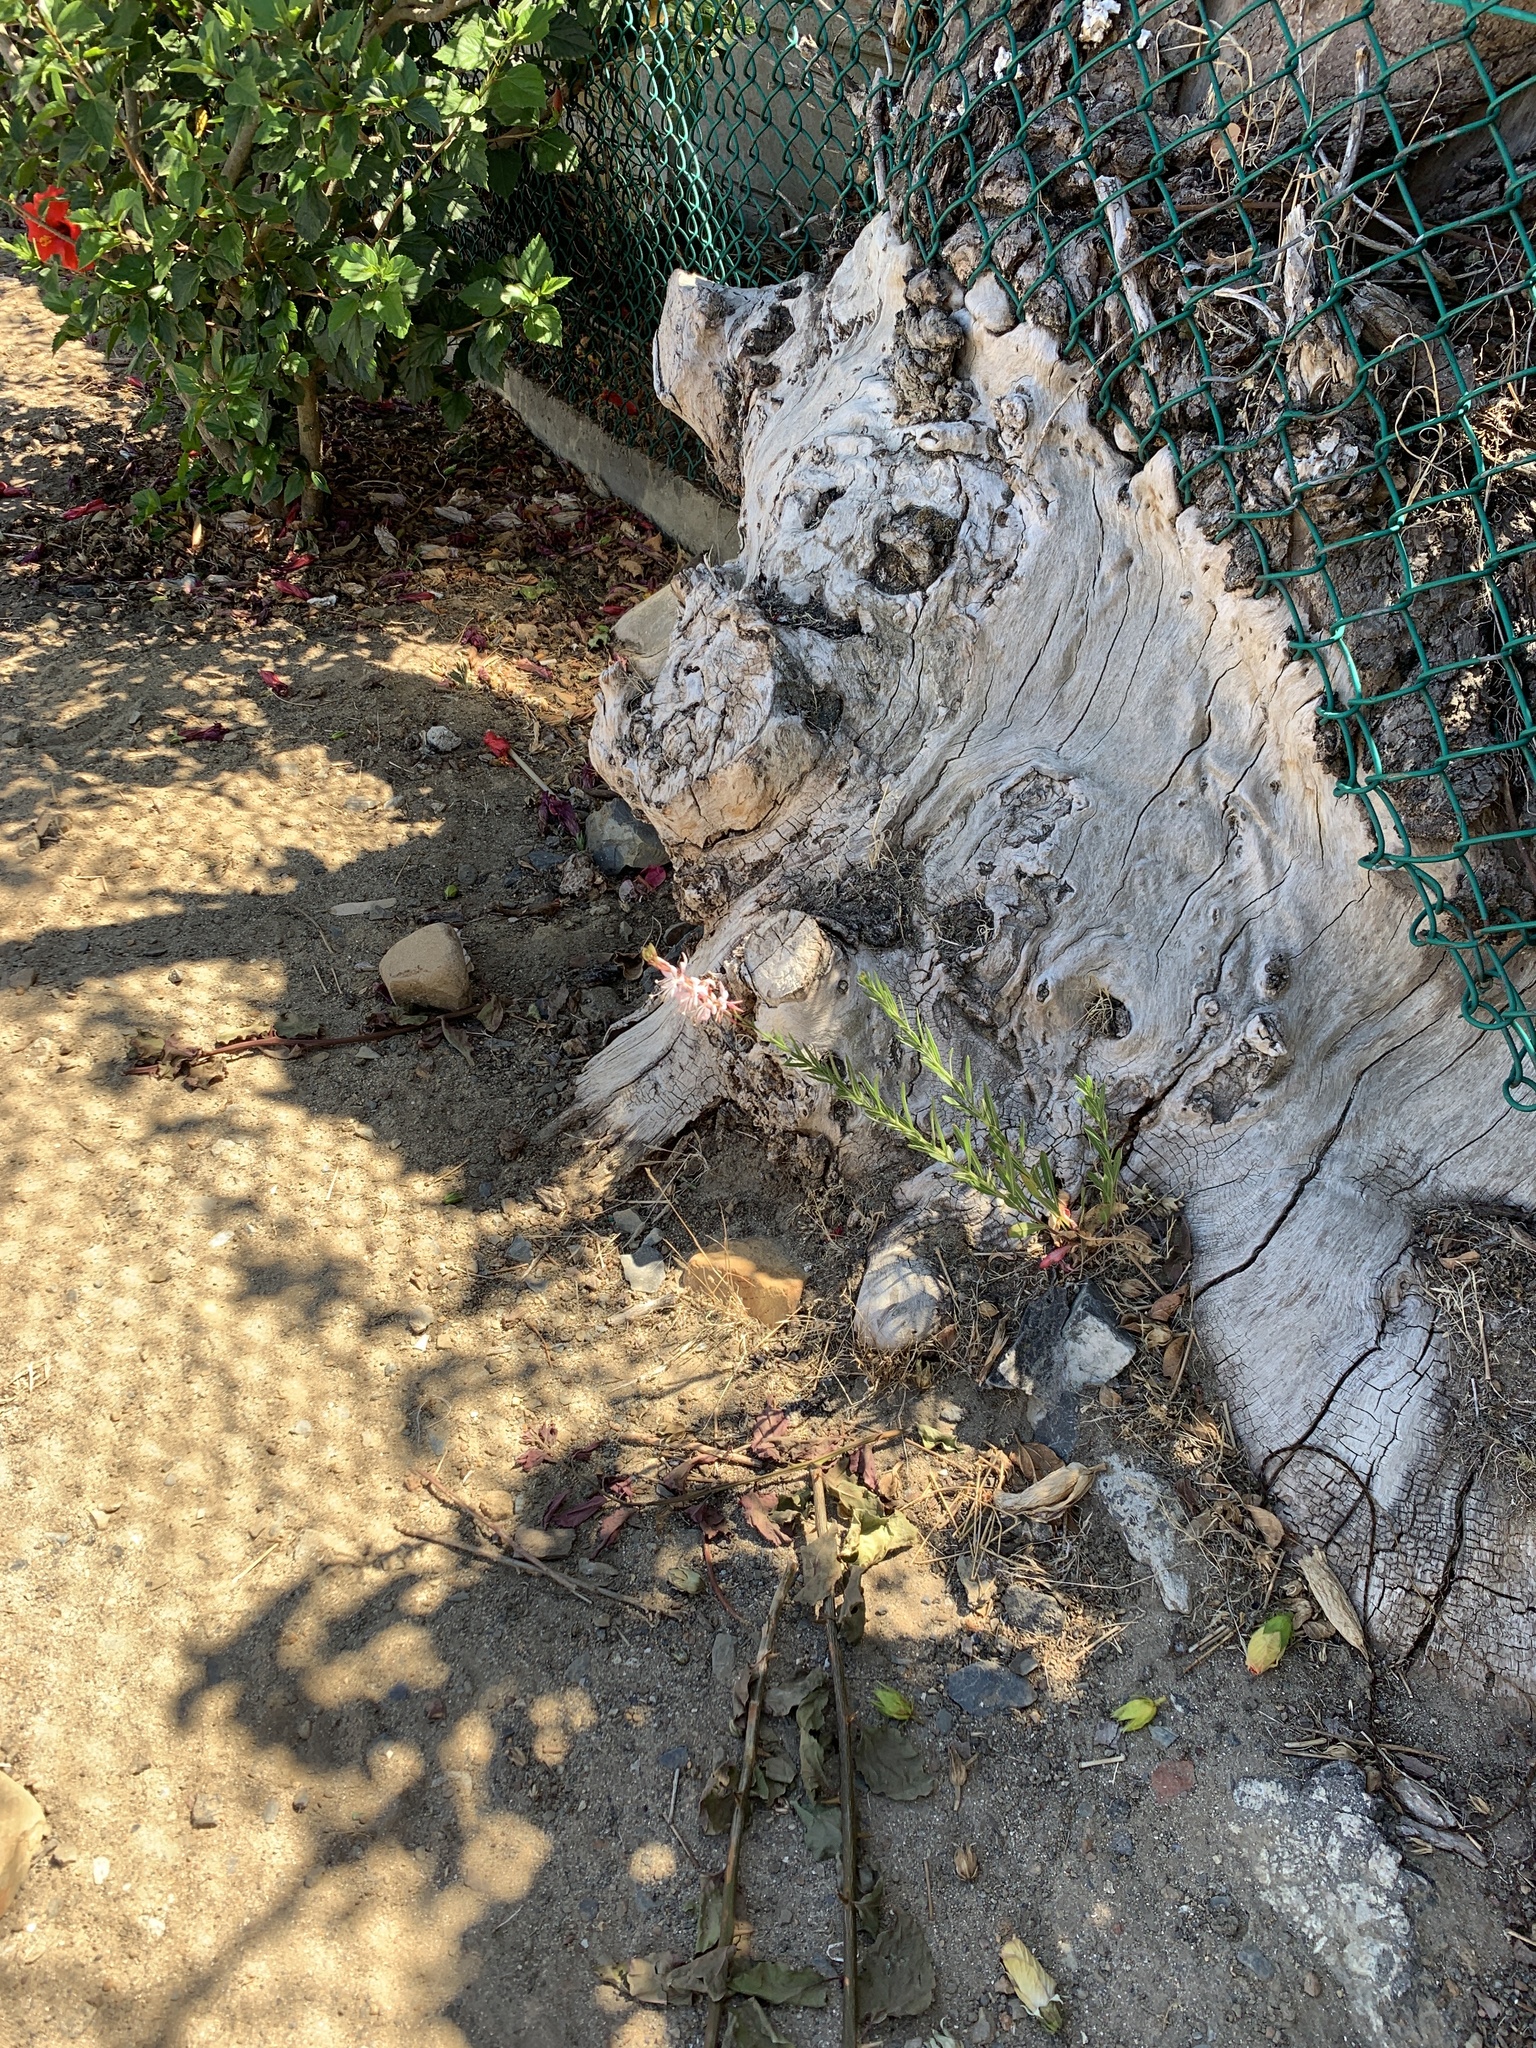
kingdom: Plantae
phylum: Tracheophyta
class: Magnoliopsida
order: Myrtales
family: Onagraceae
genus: Oenothera
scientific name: Oenothera lindheimeri
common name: Lindheimer's beeblossom
